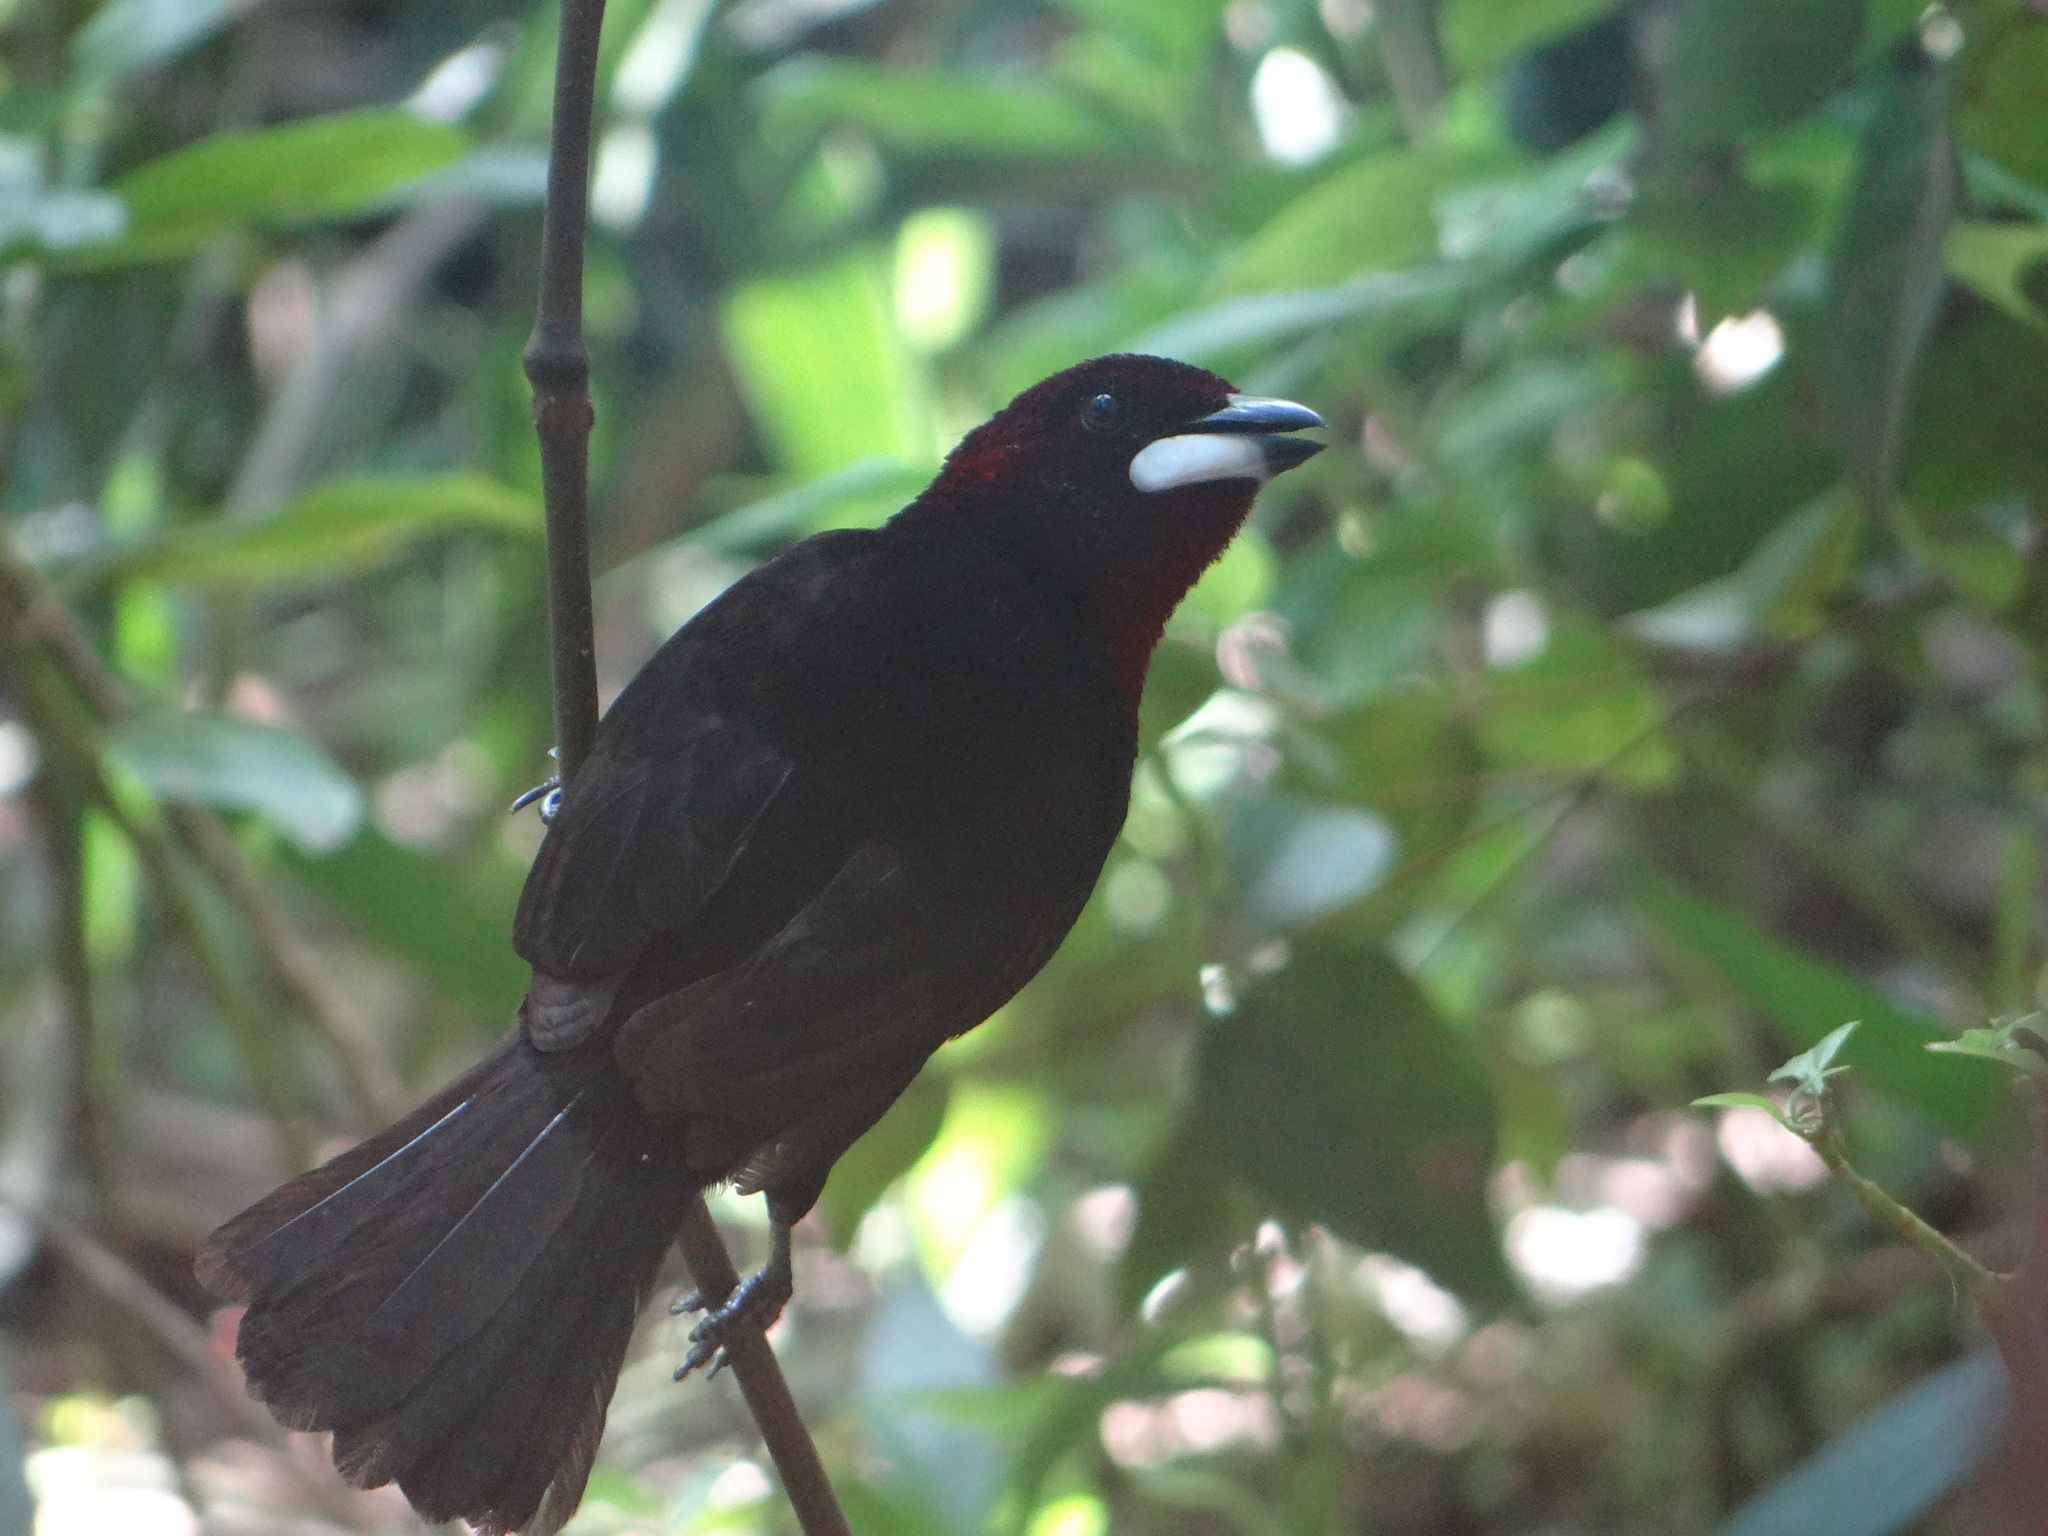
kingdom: Animalia
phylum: Chordata
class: Aves
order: Passeriformes
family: Thraupidae
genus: Ramphocelus
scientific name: Ramphocelus carbo
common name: Silver-beaked tanager
